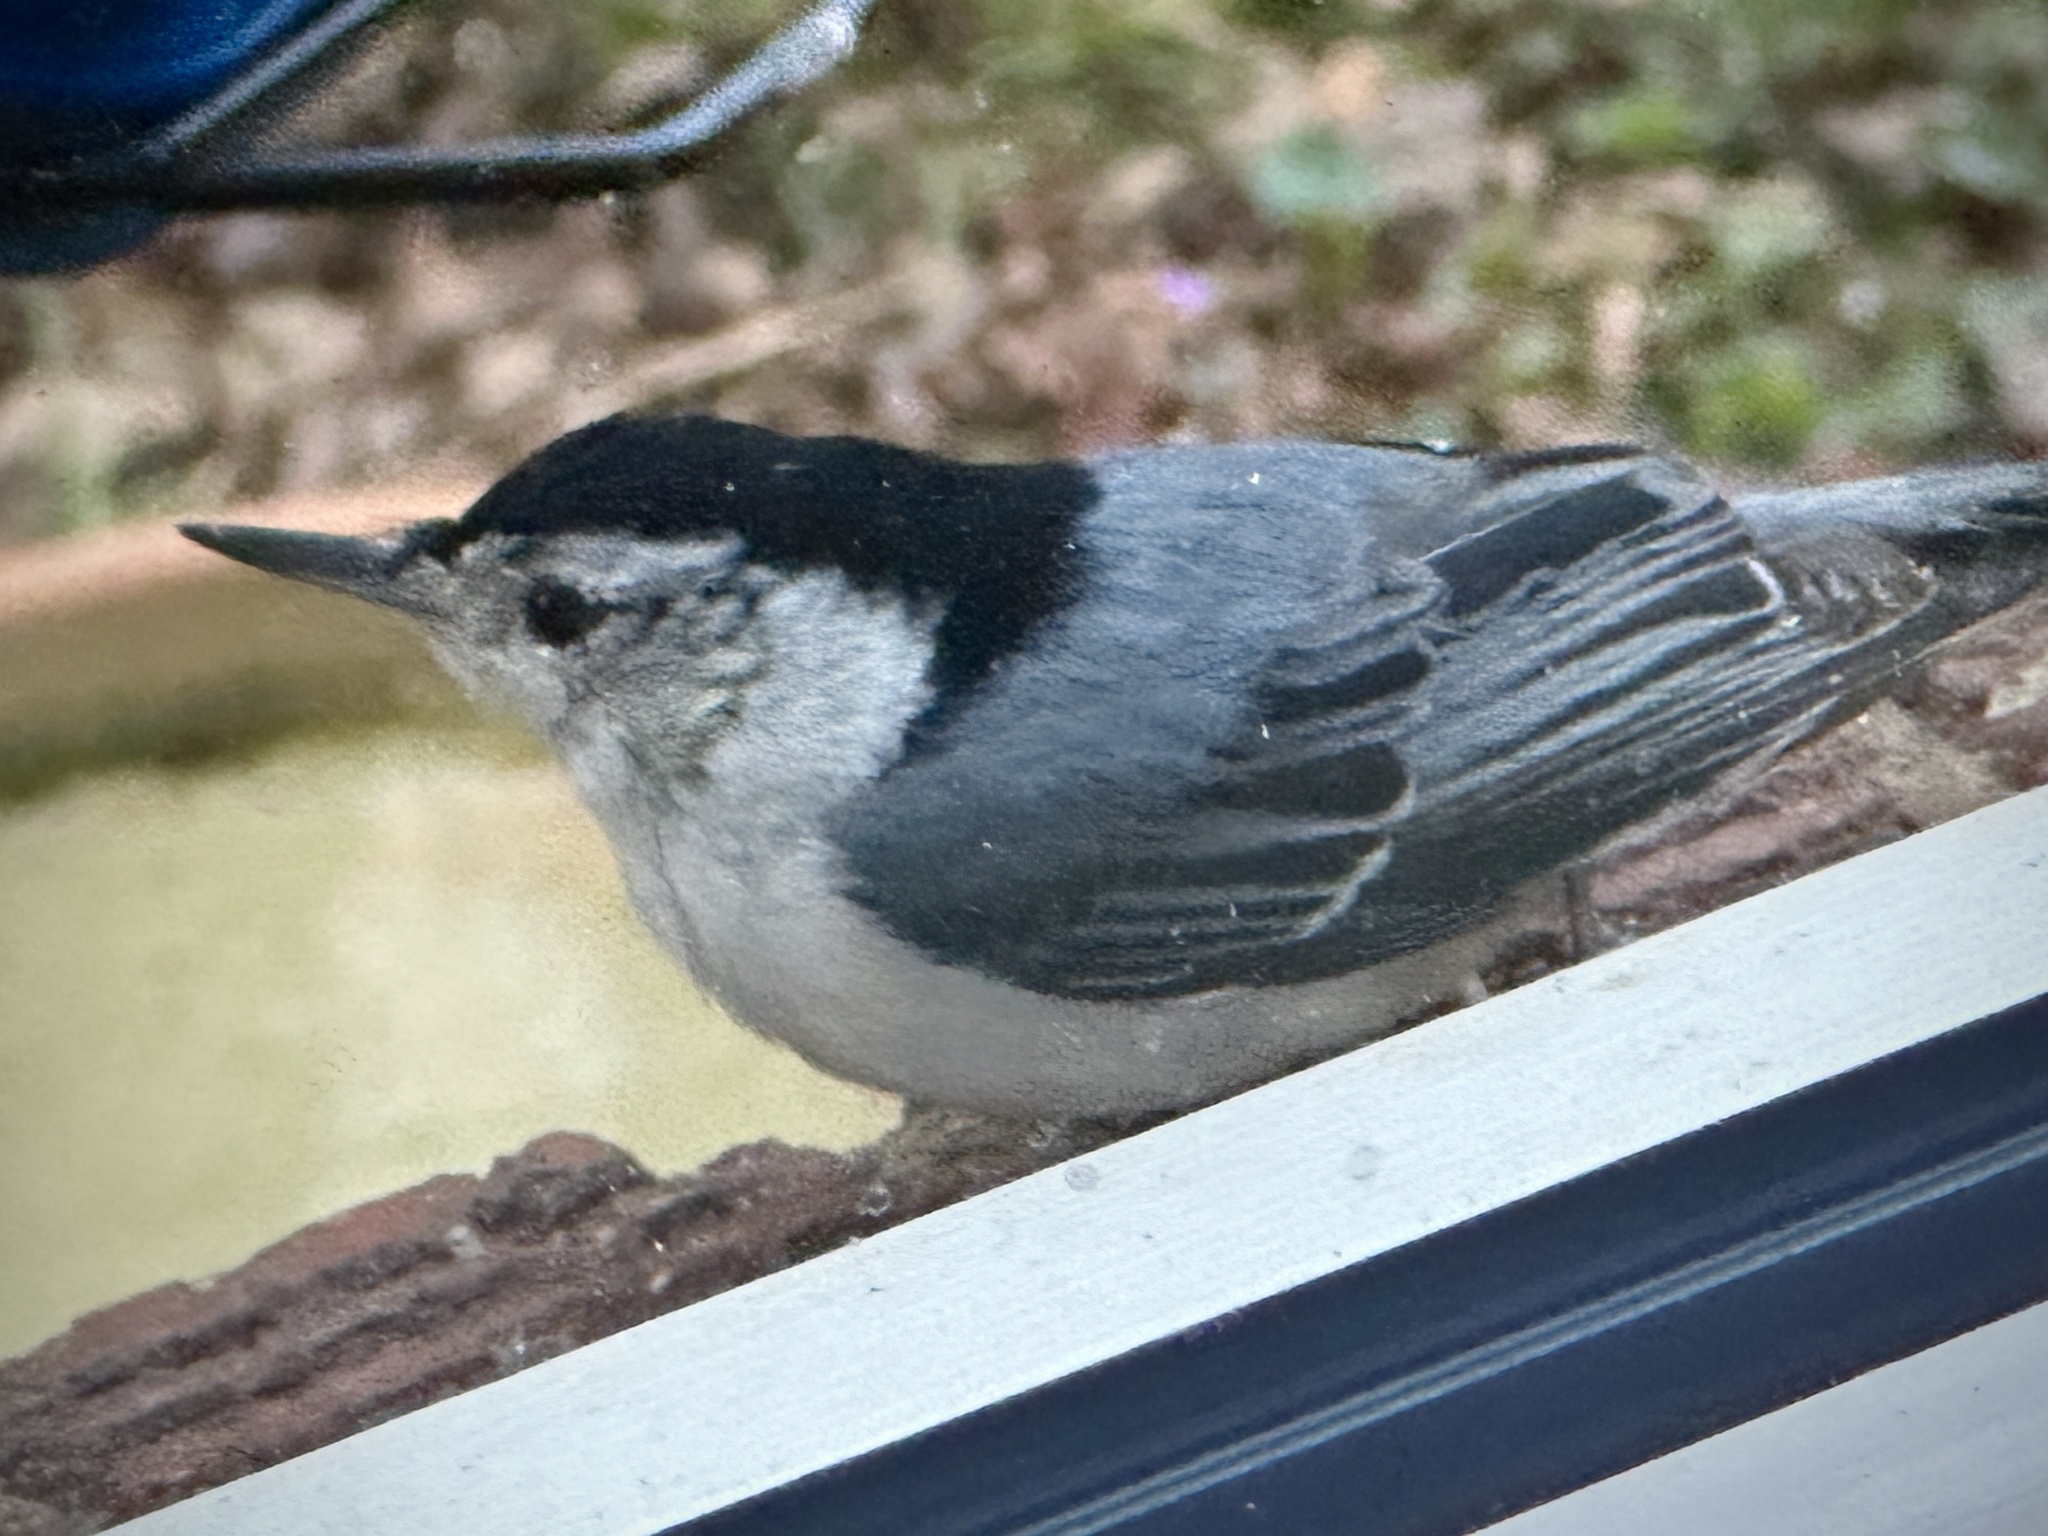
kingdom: Animalia
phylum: Chordata
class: Aves
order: Passeriformes
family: Sittidae
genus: Sitta
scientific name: Sitta carolinensis
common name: White-breasted nuthatch
